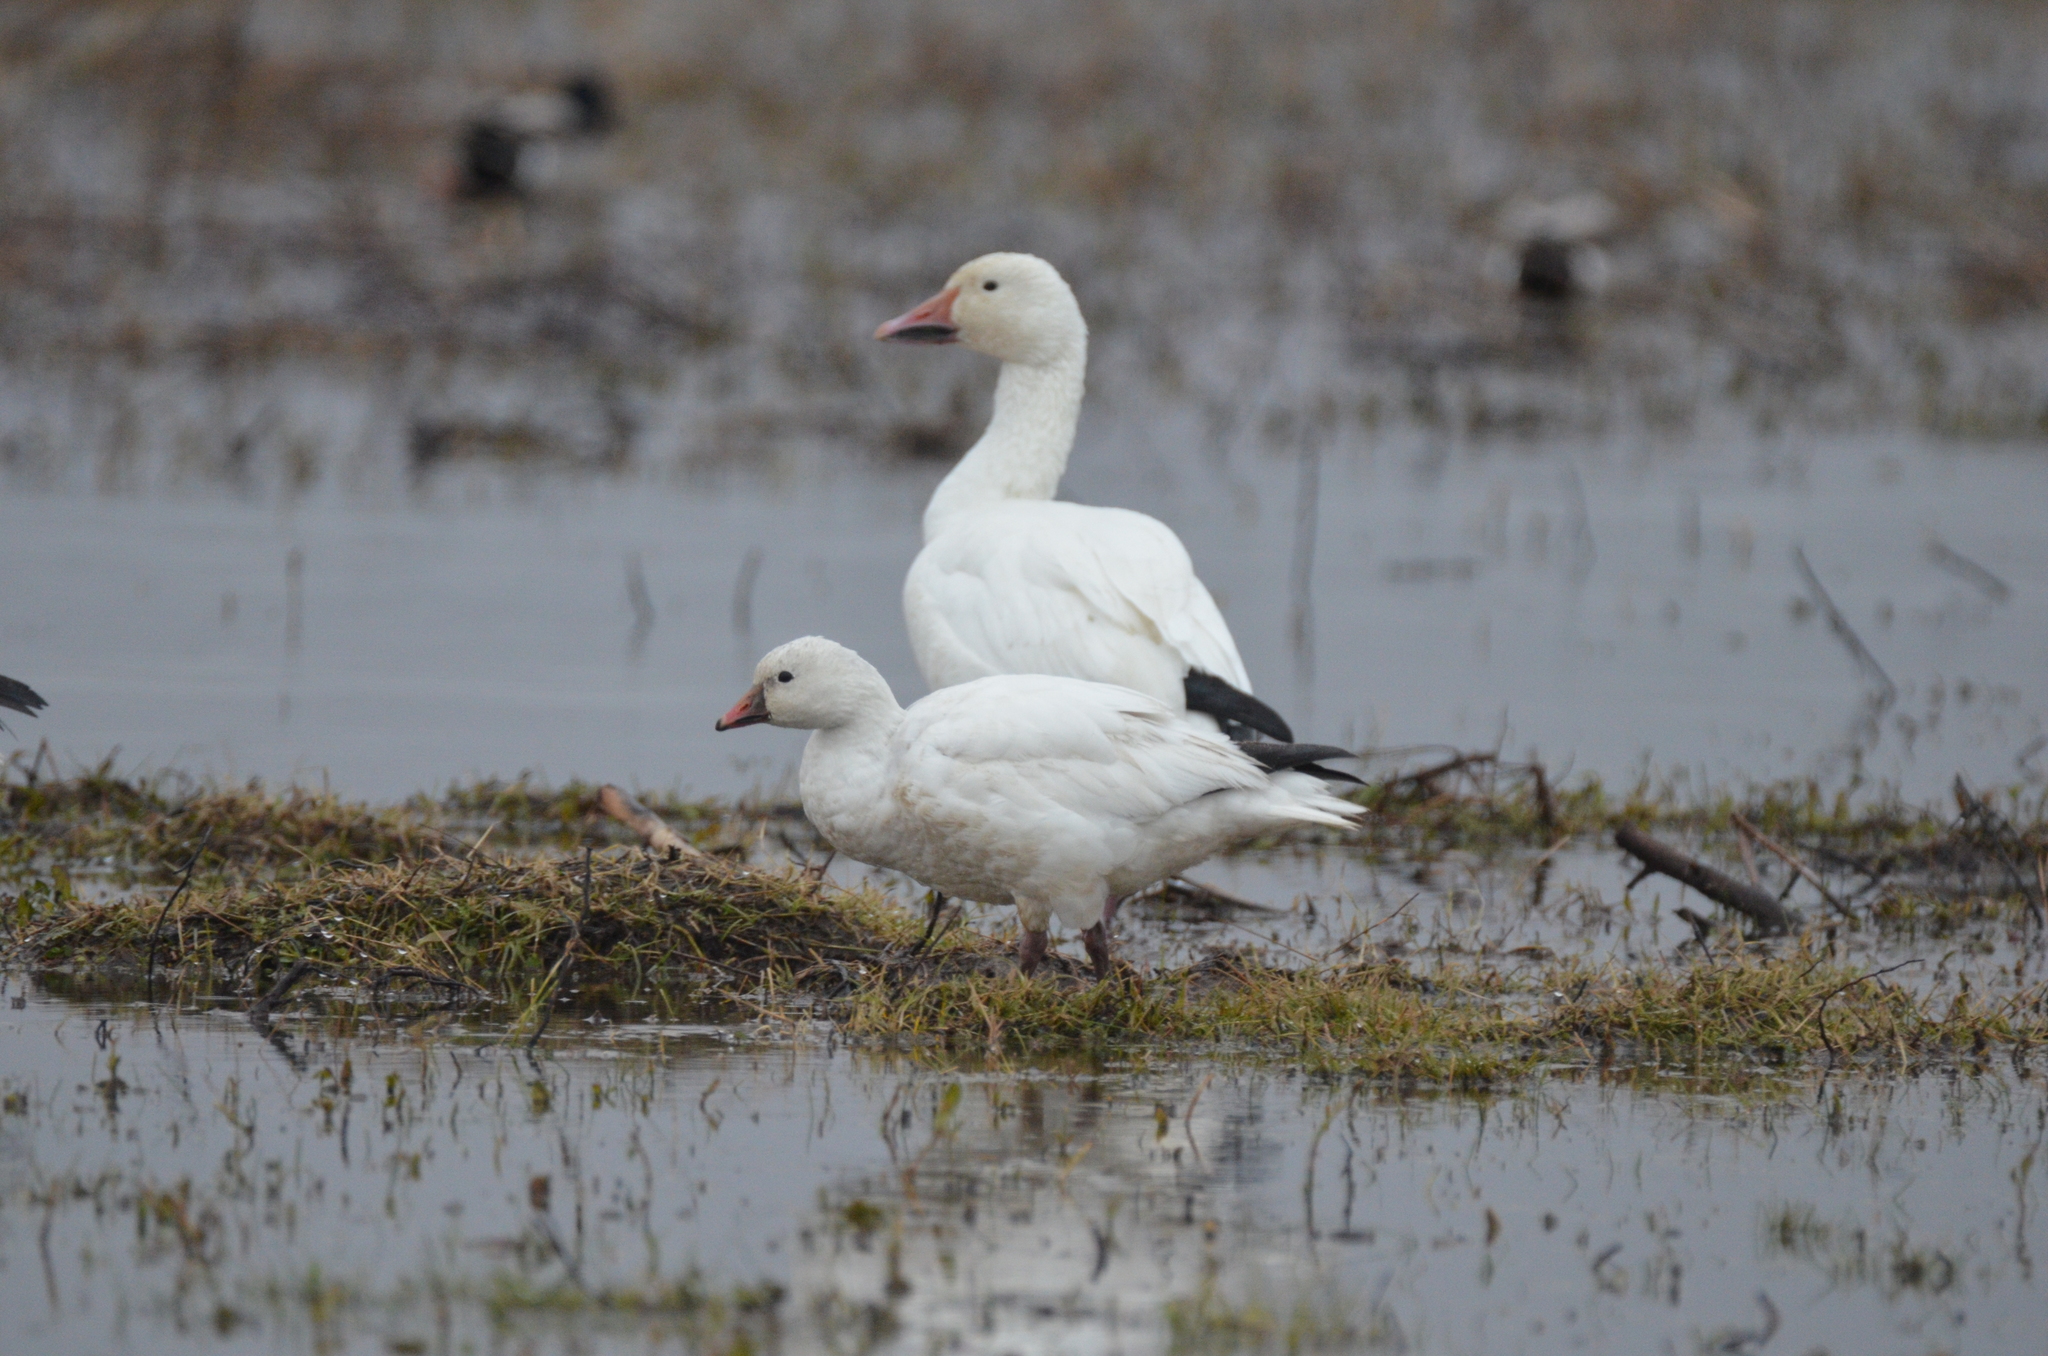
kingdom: Animalia
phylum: Chordata
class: Aves
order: Anseriformes
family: Anatidae
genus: Anser
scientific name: Anser rossii
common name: Ross's goose
